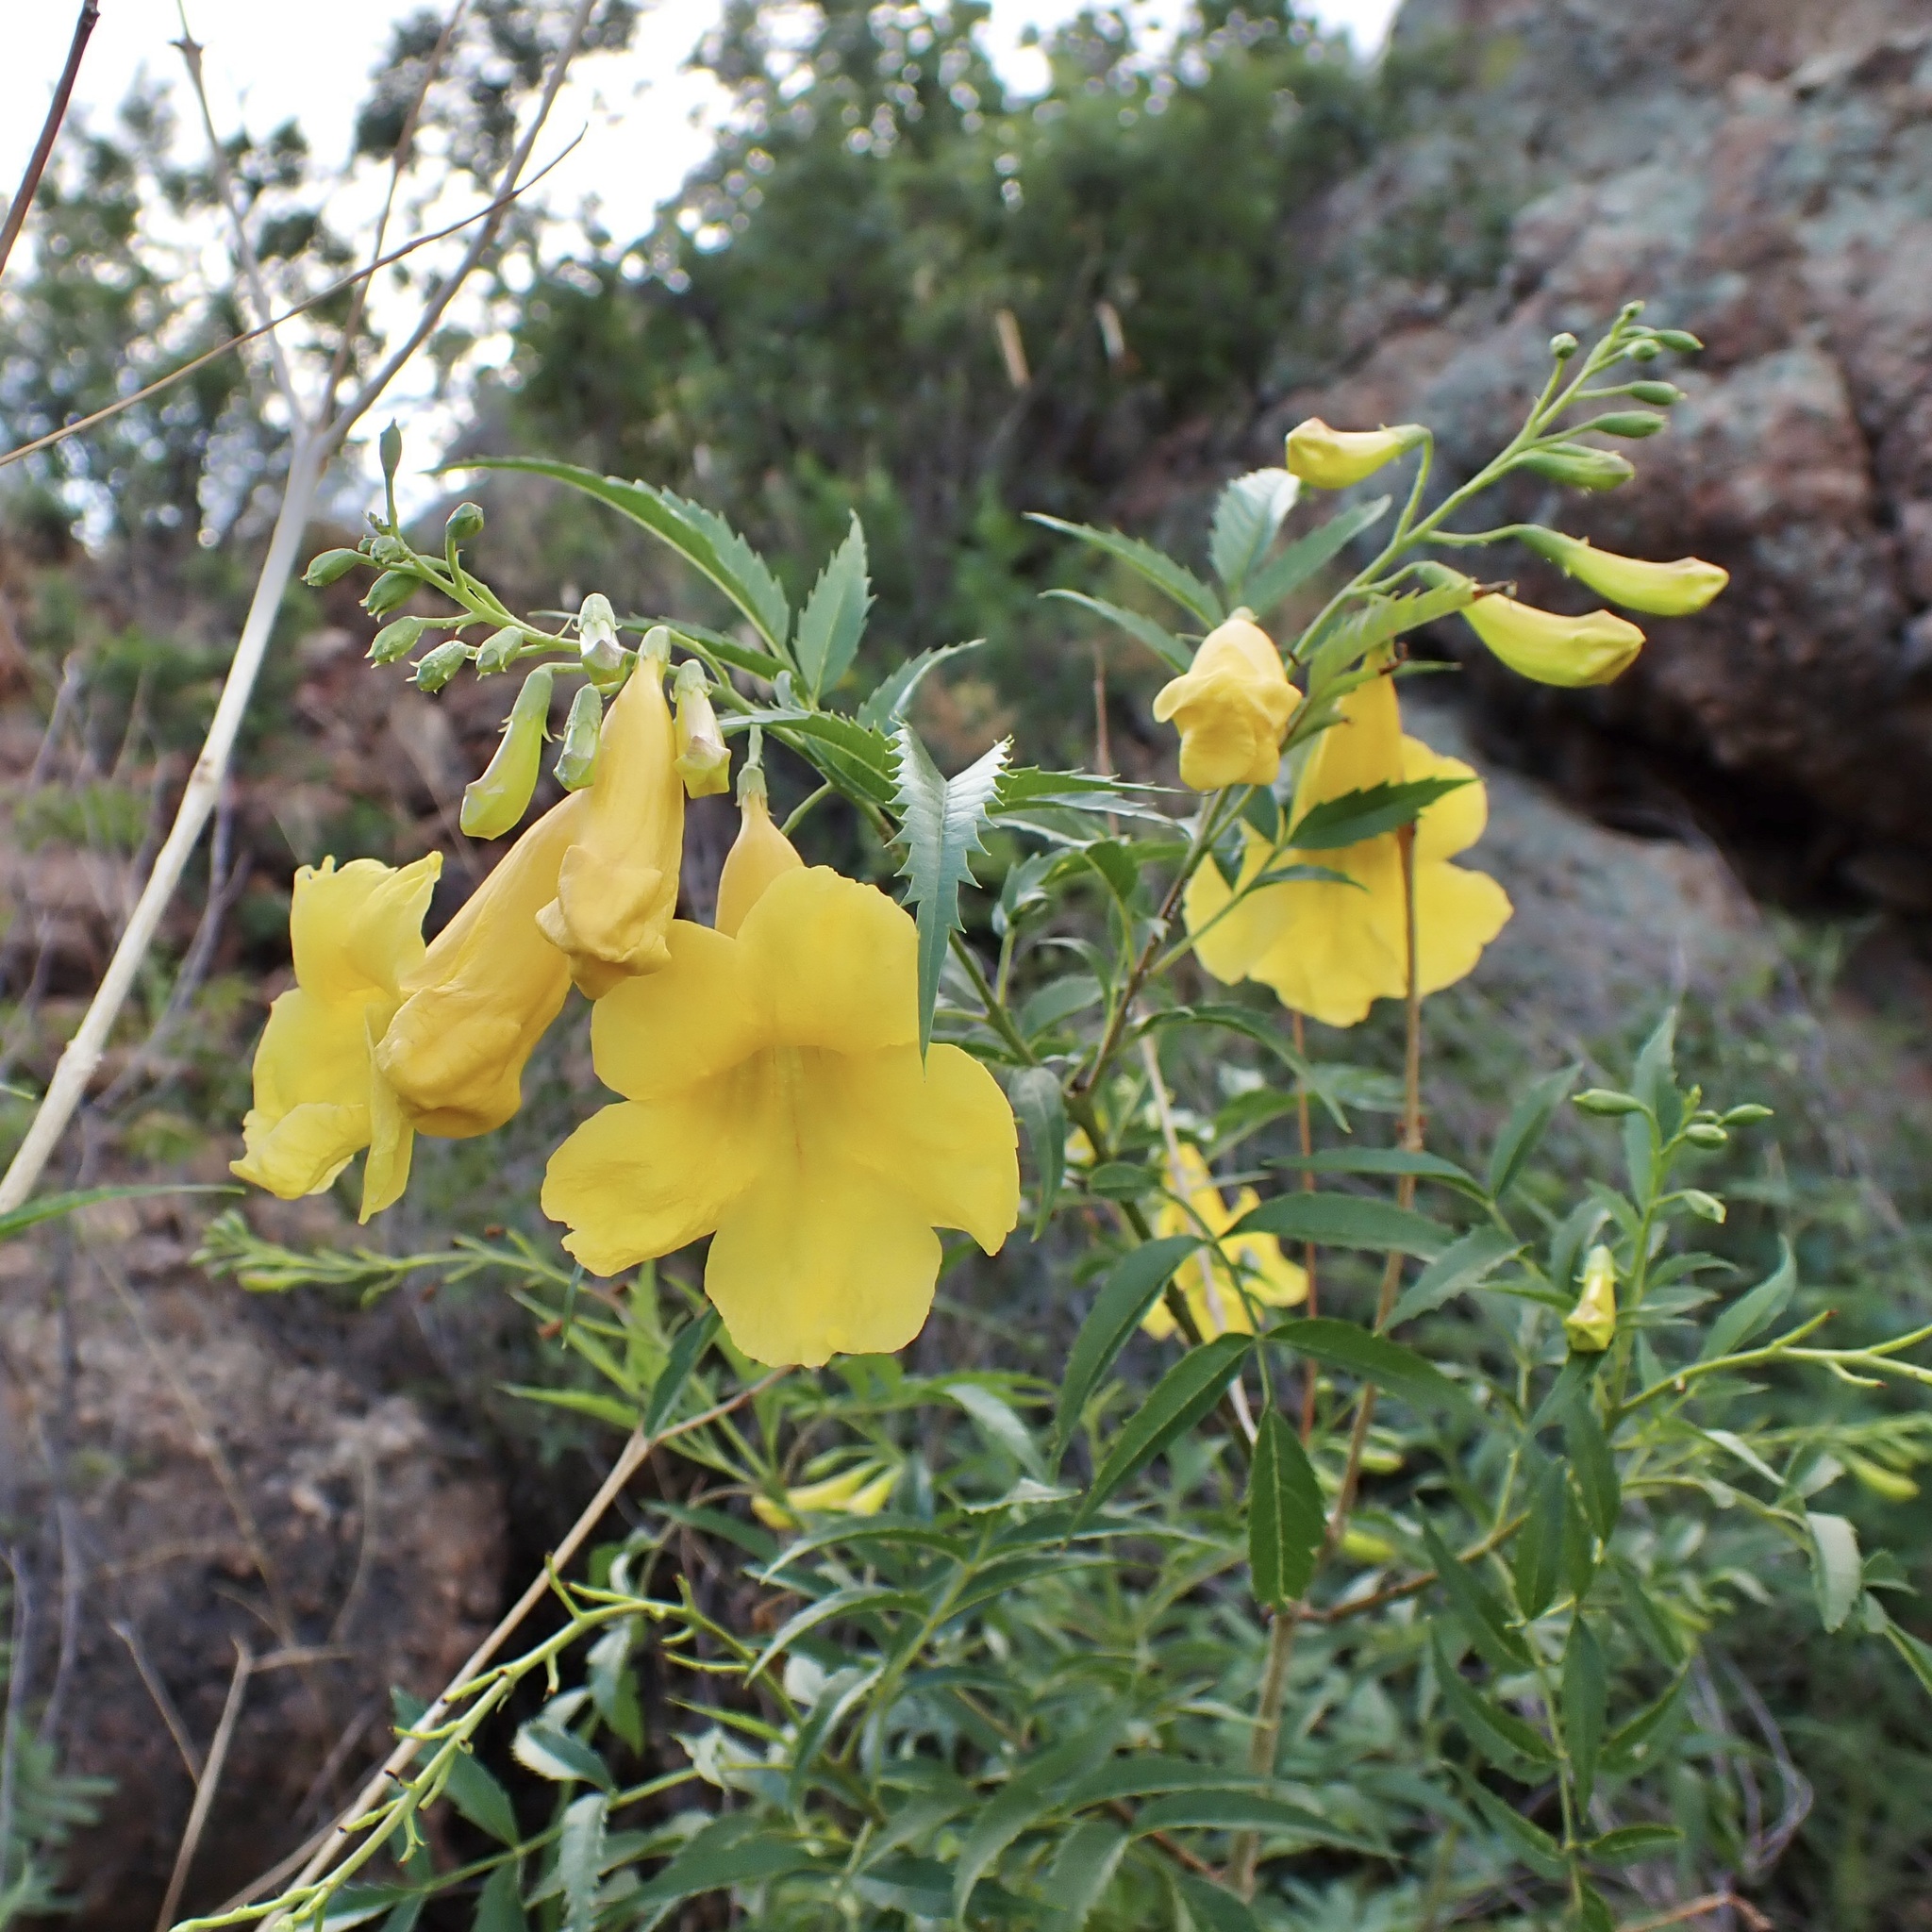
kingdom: Plantae
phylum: Tracheophyta
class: Magnoliopsida
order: Lamiales
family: Bignoniaceae
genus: Tecoma
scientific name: Tecoma stans
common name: Yellow trumpetbush
